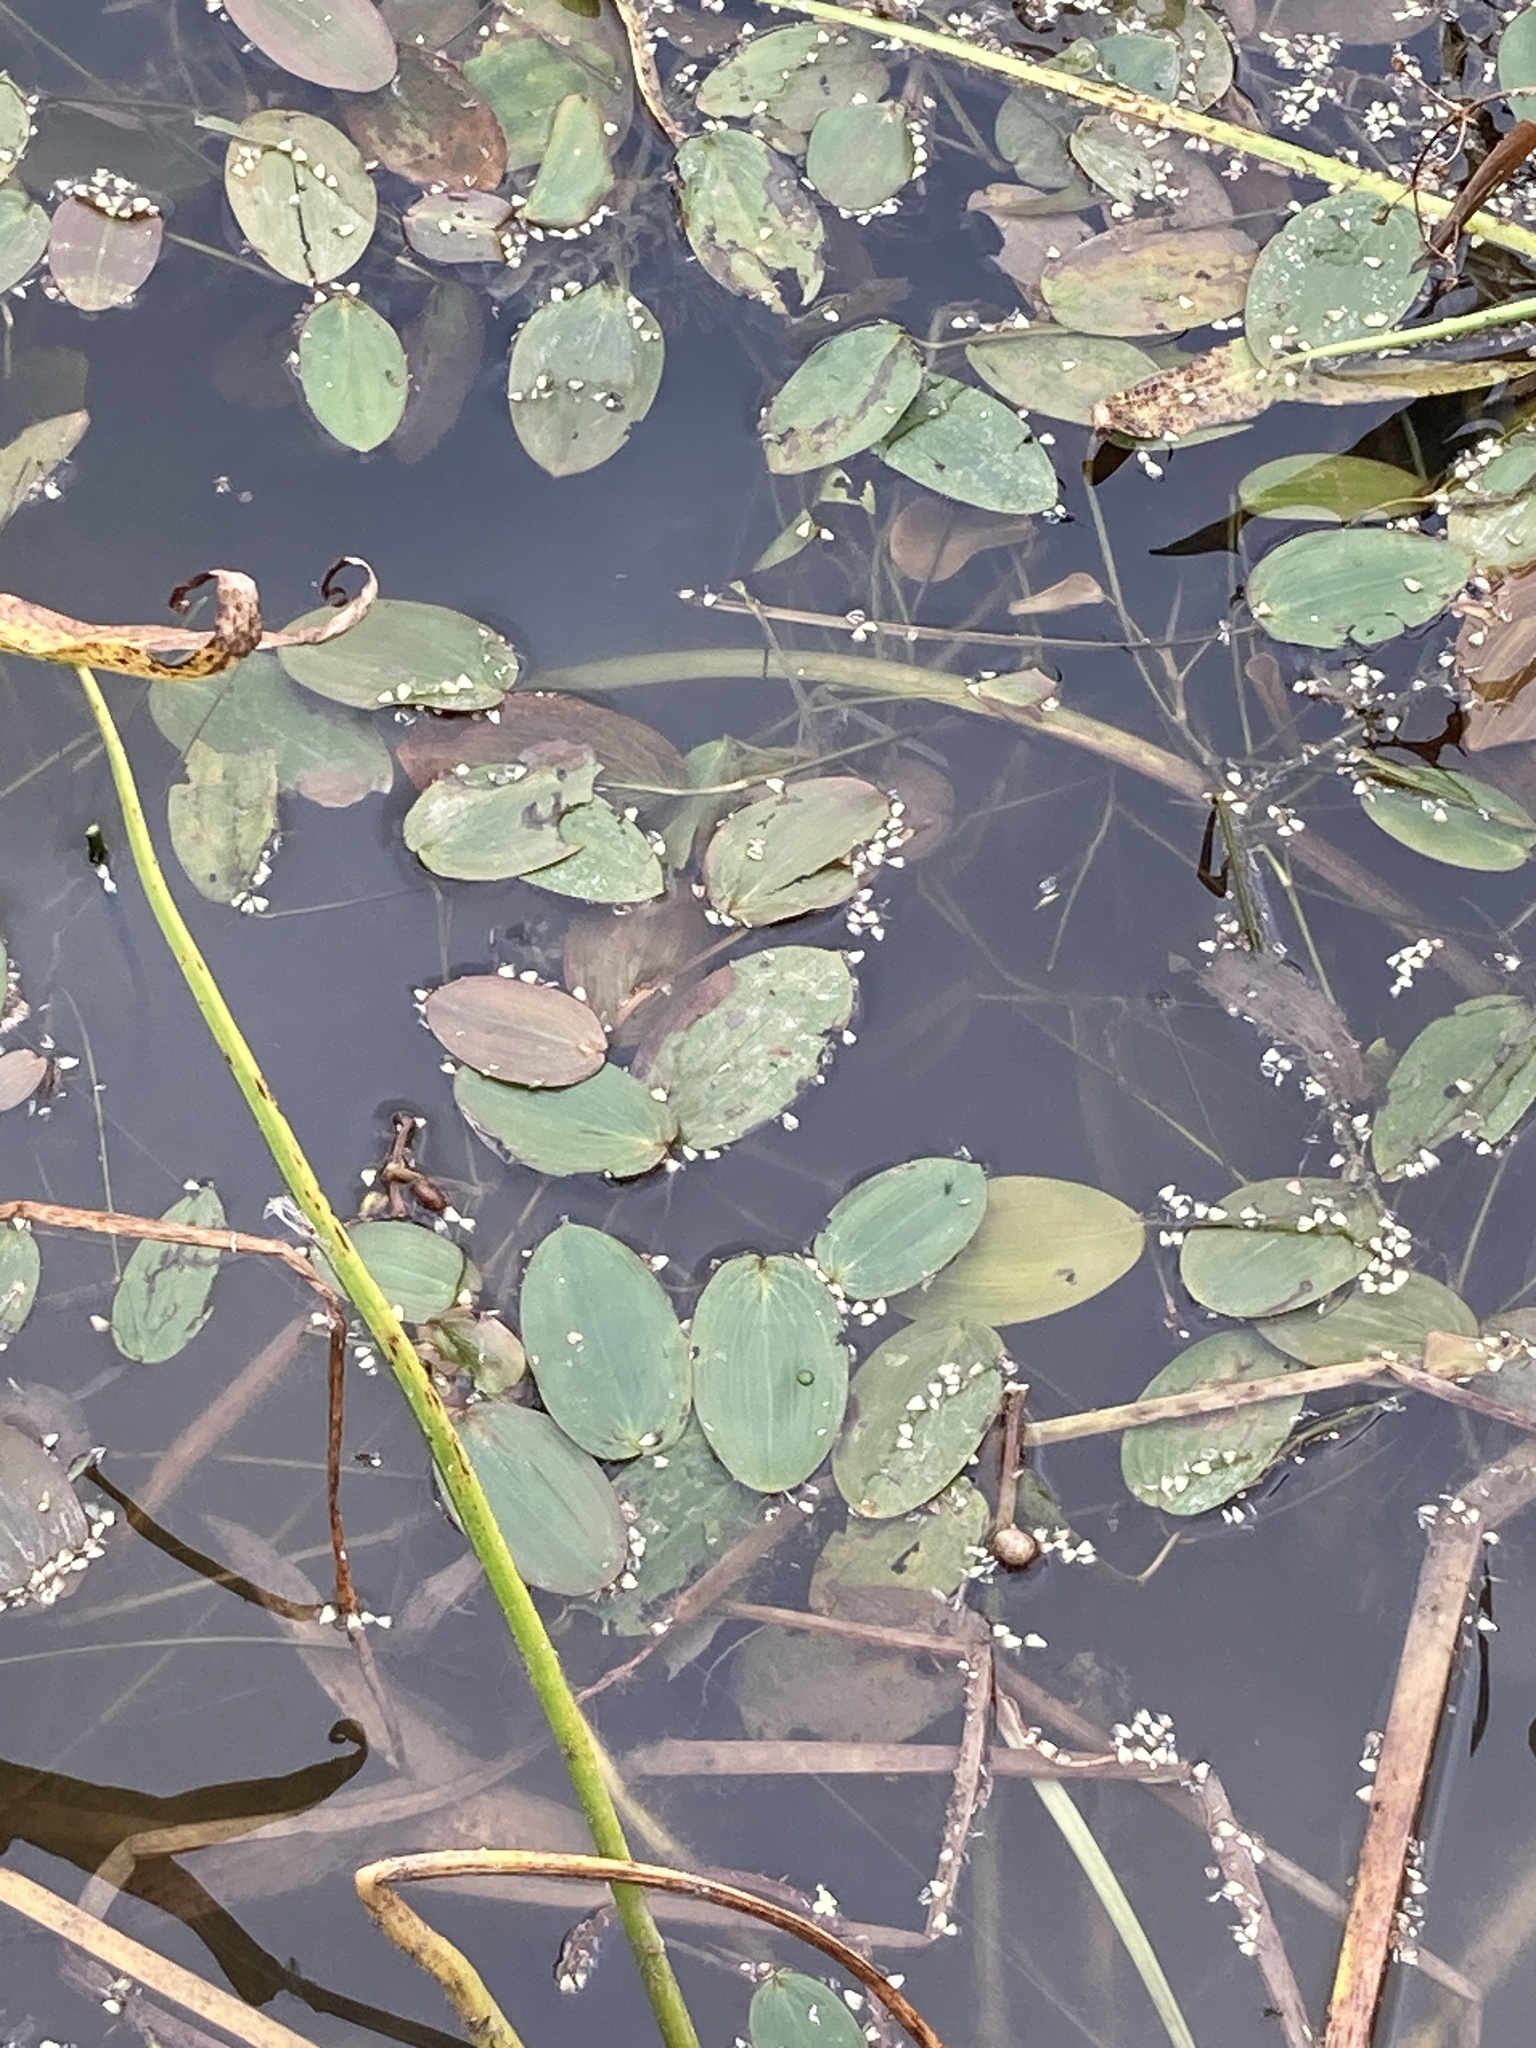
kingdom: Plantae
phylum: Tracheophyta
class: Liliopsida
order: Alismatales
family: Potamogetonaceae
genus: Potamogeton
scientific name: Potamogeton natans
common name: Broad-leaved pondweed
